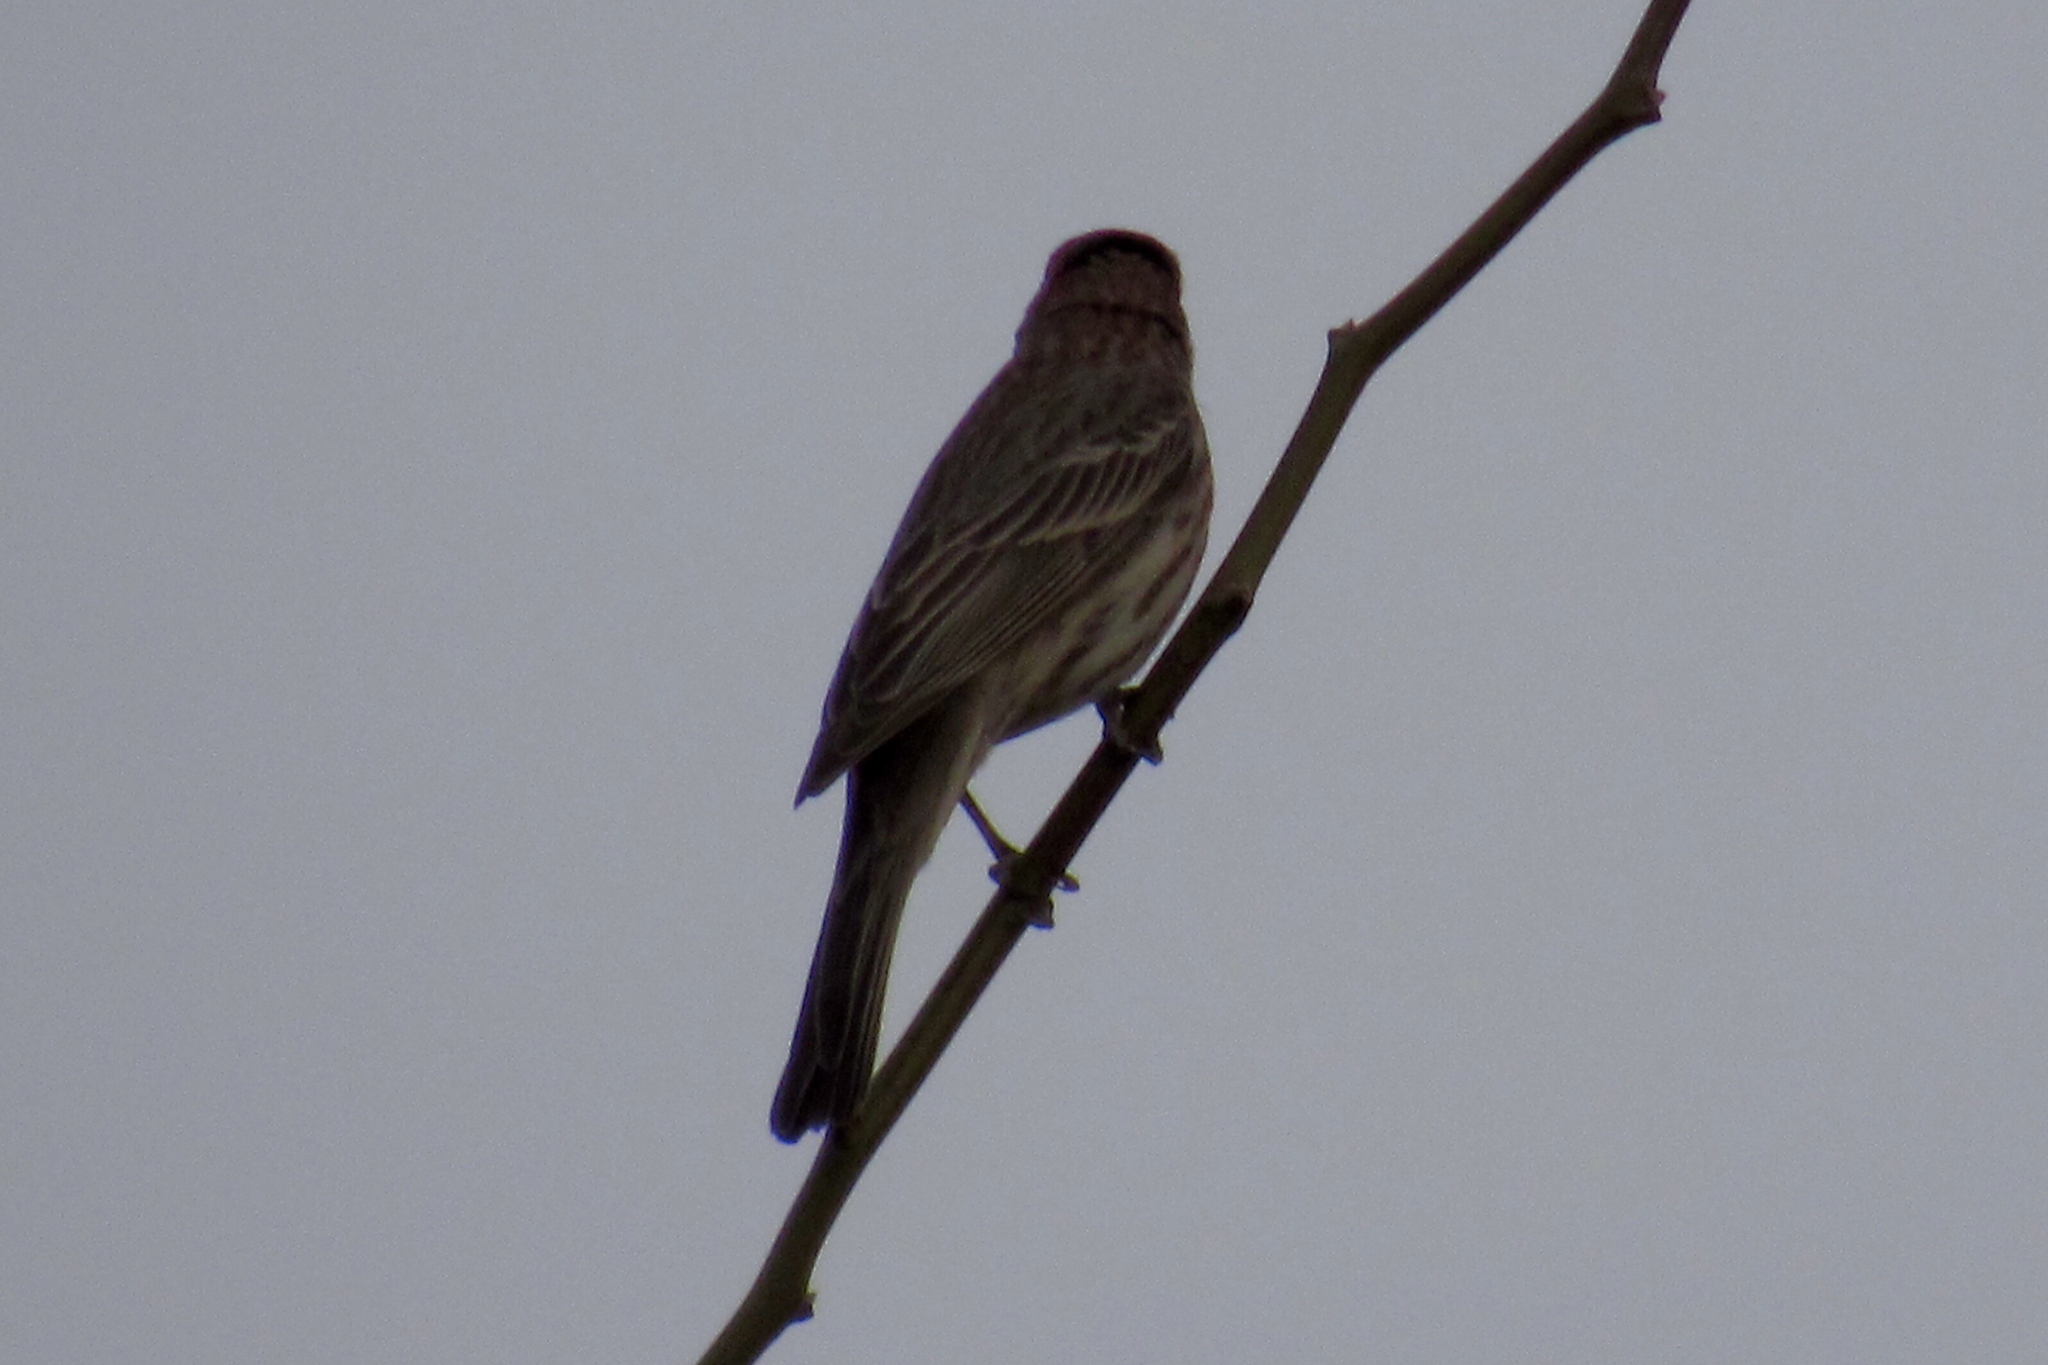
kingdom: Animalia
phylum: Chordata
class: Aves
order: Passeriformes
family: Fringillidae
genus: Haemorhous
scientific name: Haemorhous mexicanus
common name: House finch
